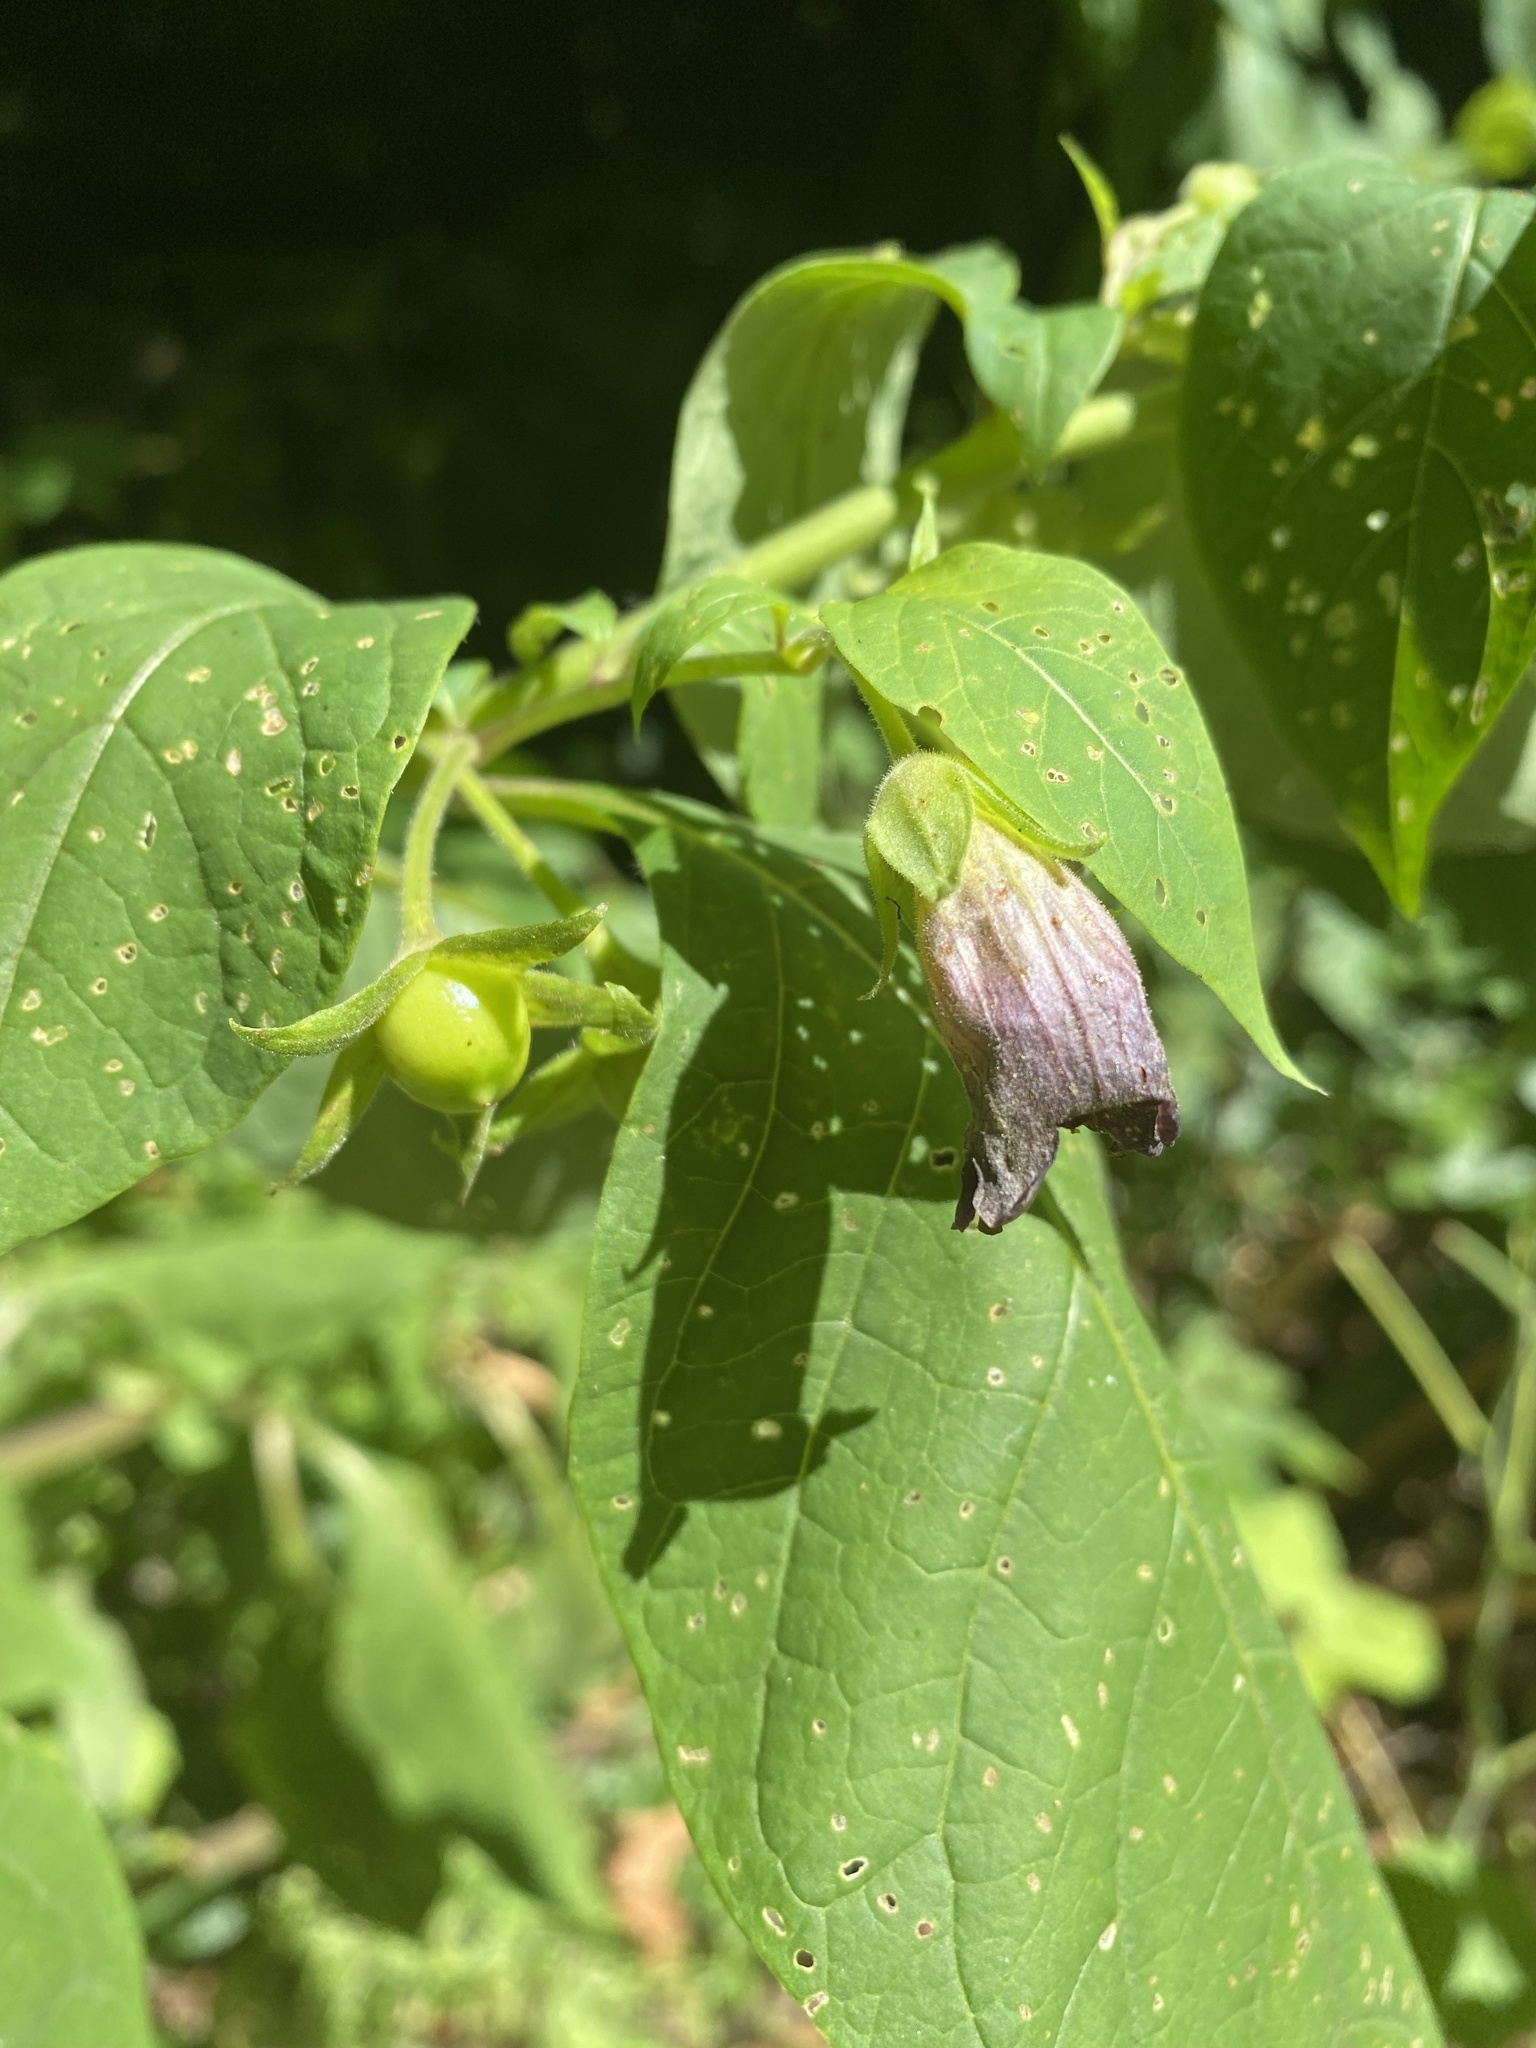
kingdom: Plantae
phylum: Tracheophyta
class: Magnoliopsida
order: Solanales
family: Solanaceae
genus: Atropa
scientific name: Atropa belladonna
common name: Deadly nightshade
